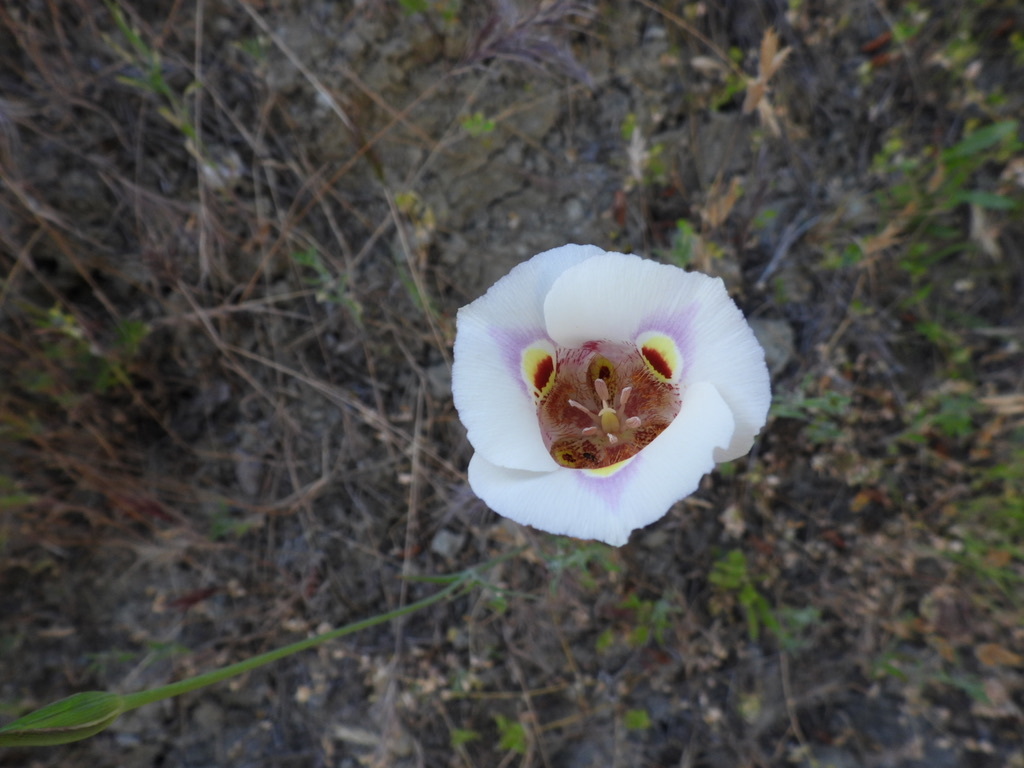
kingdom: Plantae
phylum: Tracheophyta
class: Liliopsida
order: Liliales
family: Liliaceae
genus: Calochortus
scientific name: Calochortus argillosus
